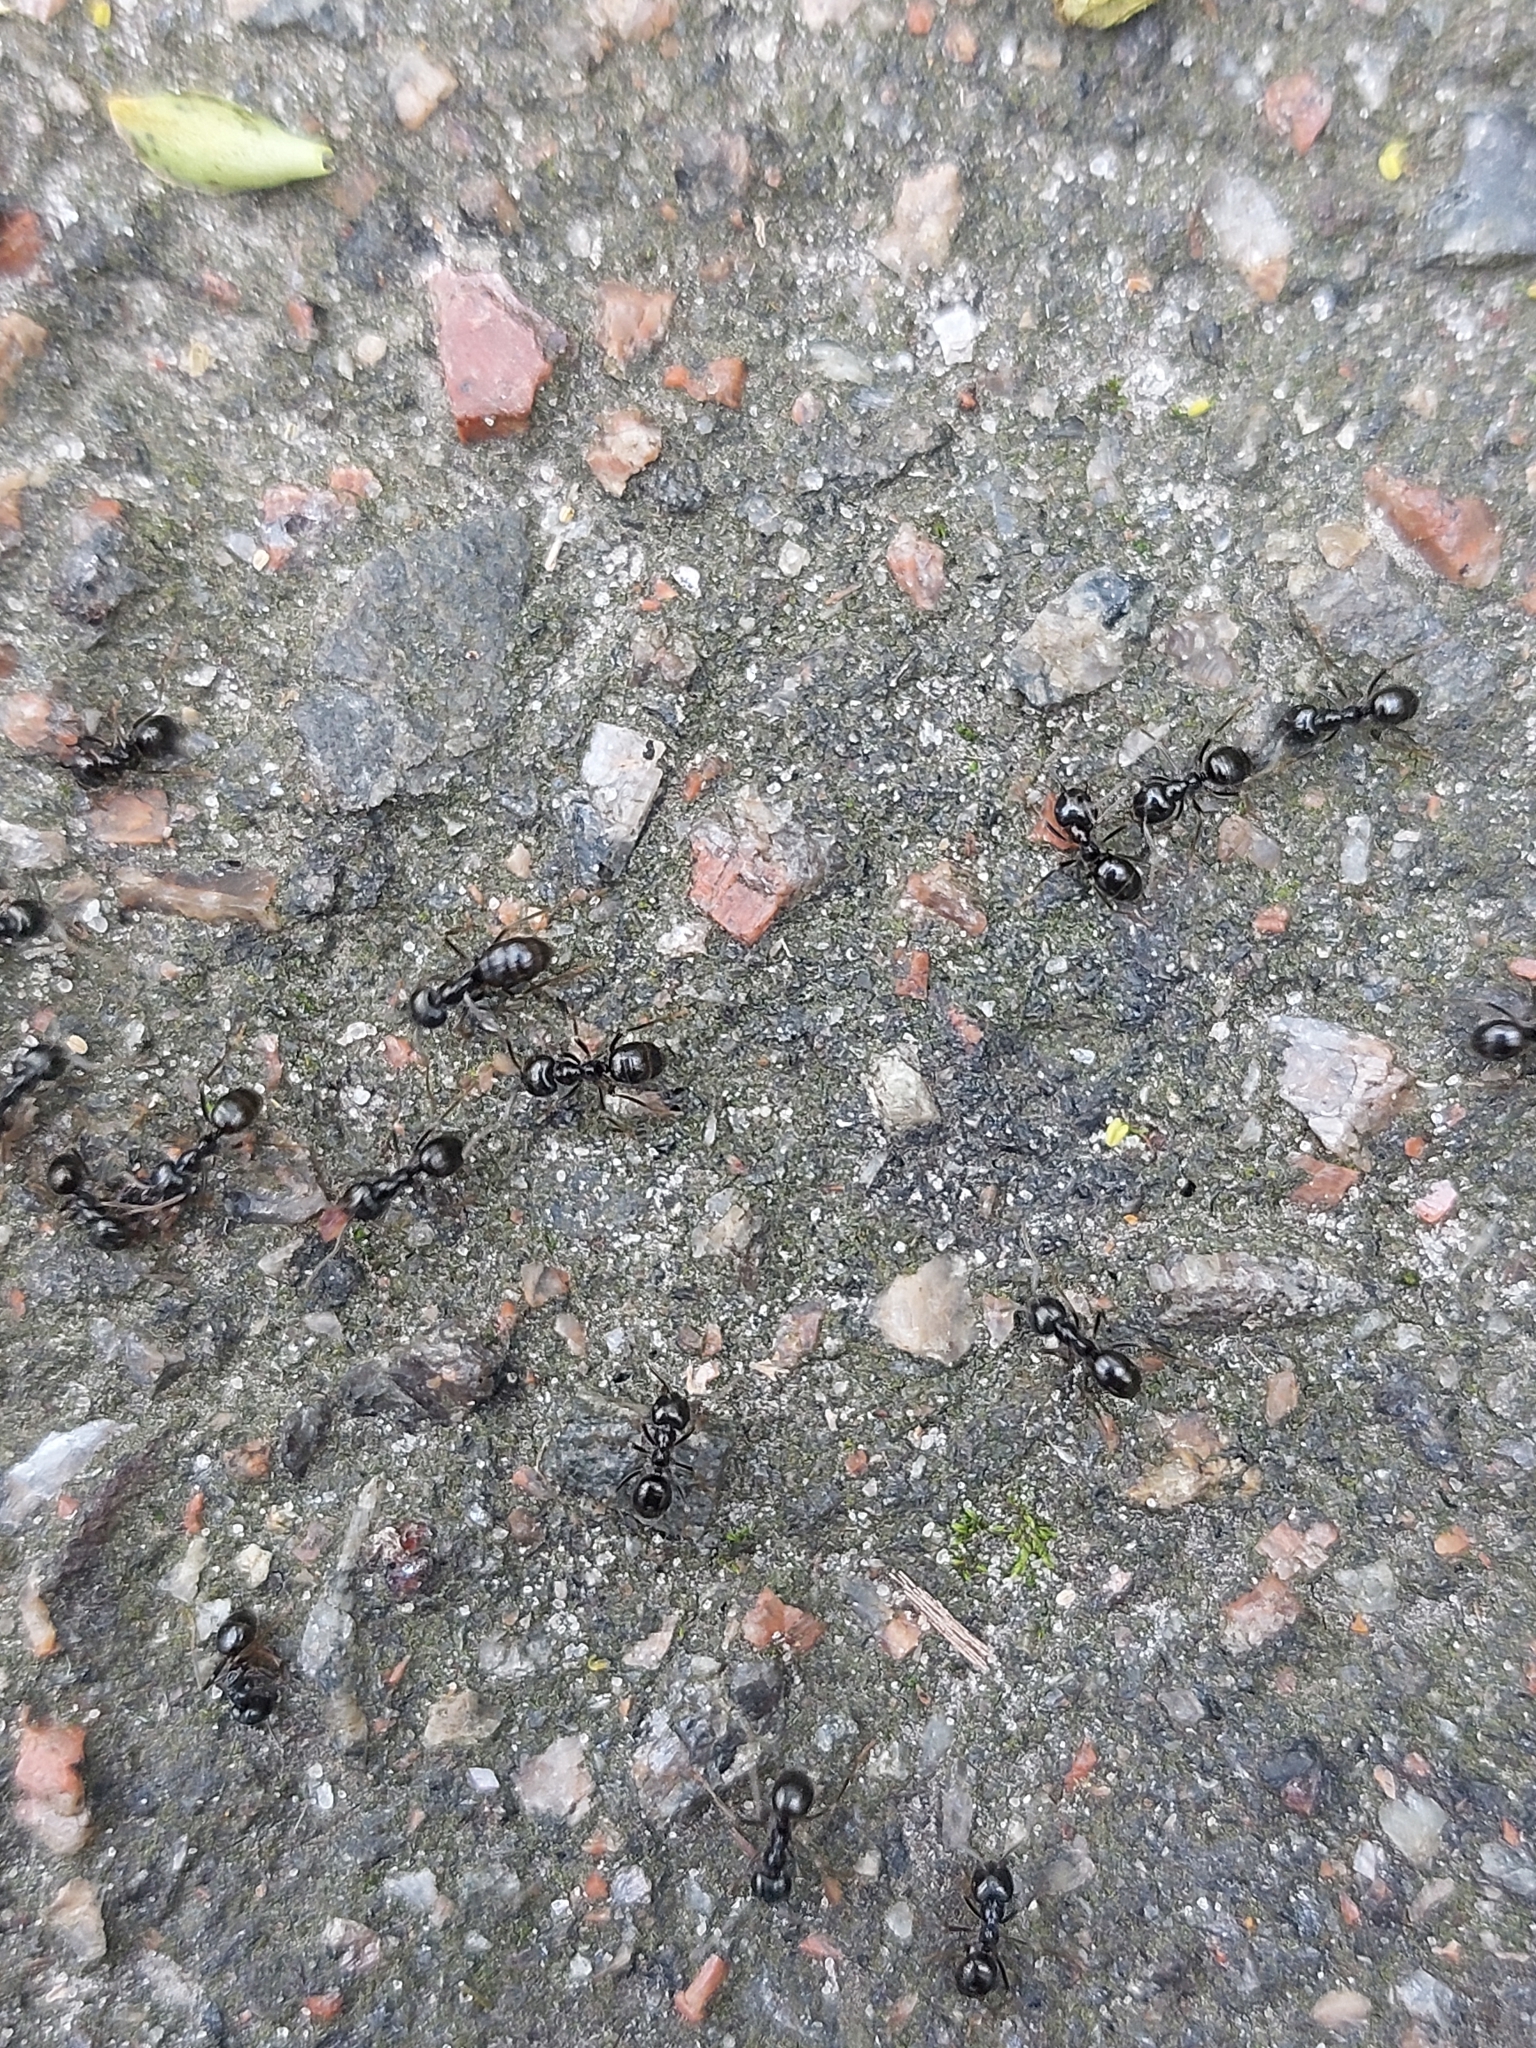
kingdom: Animalia
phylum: Arthropoda
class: Insecta
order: Hymenoptera
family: Formicidae
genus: Lasius
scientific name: Lasius fuliginosus
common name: Jet ant
